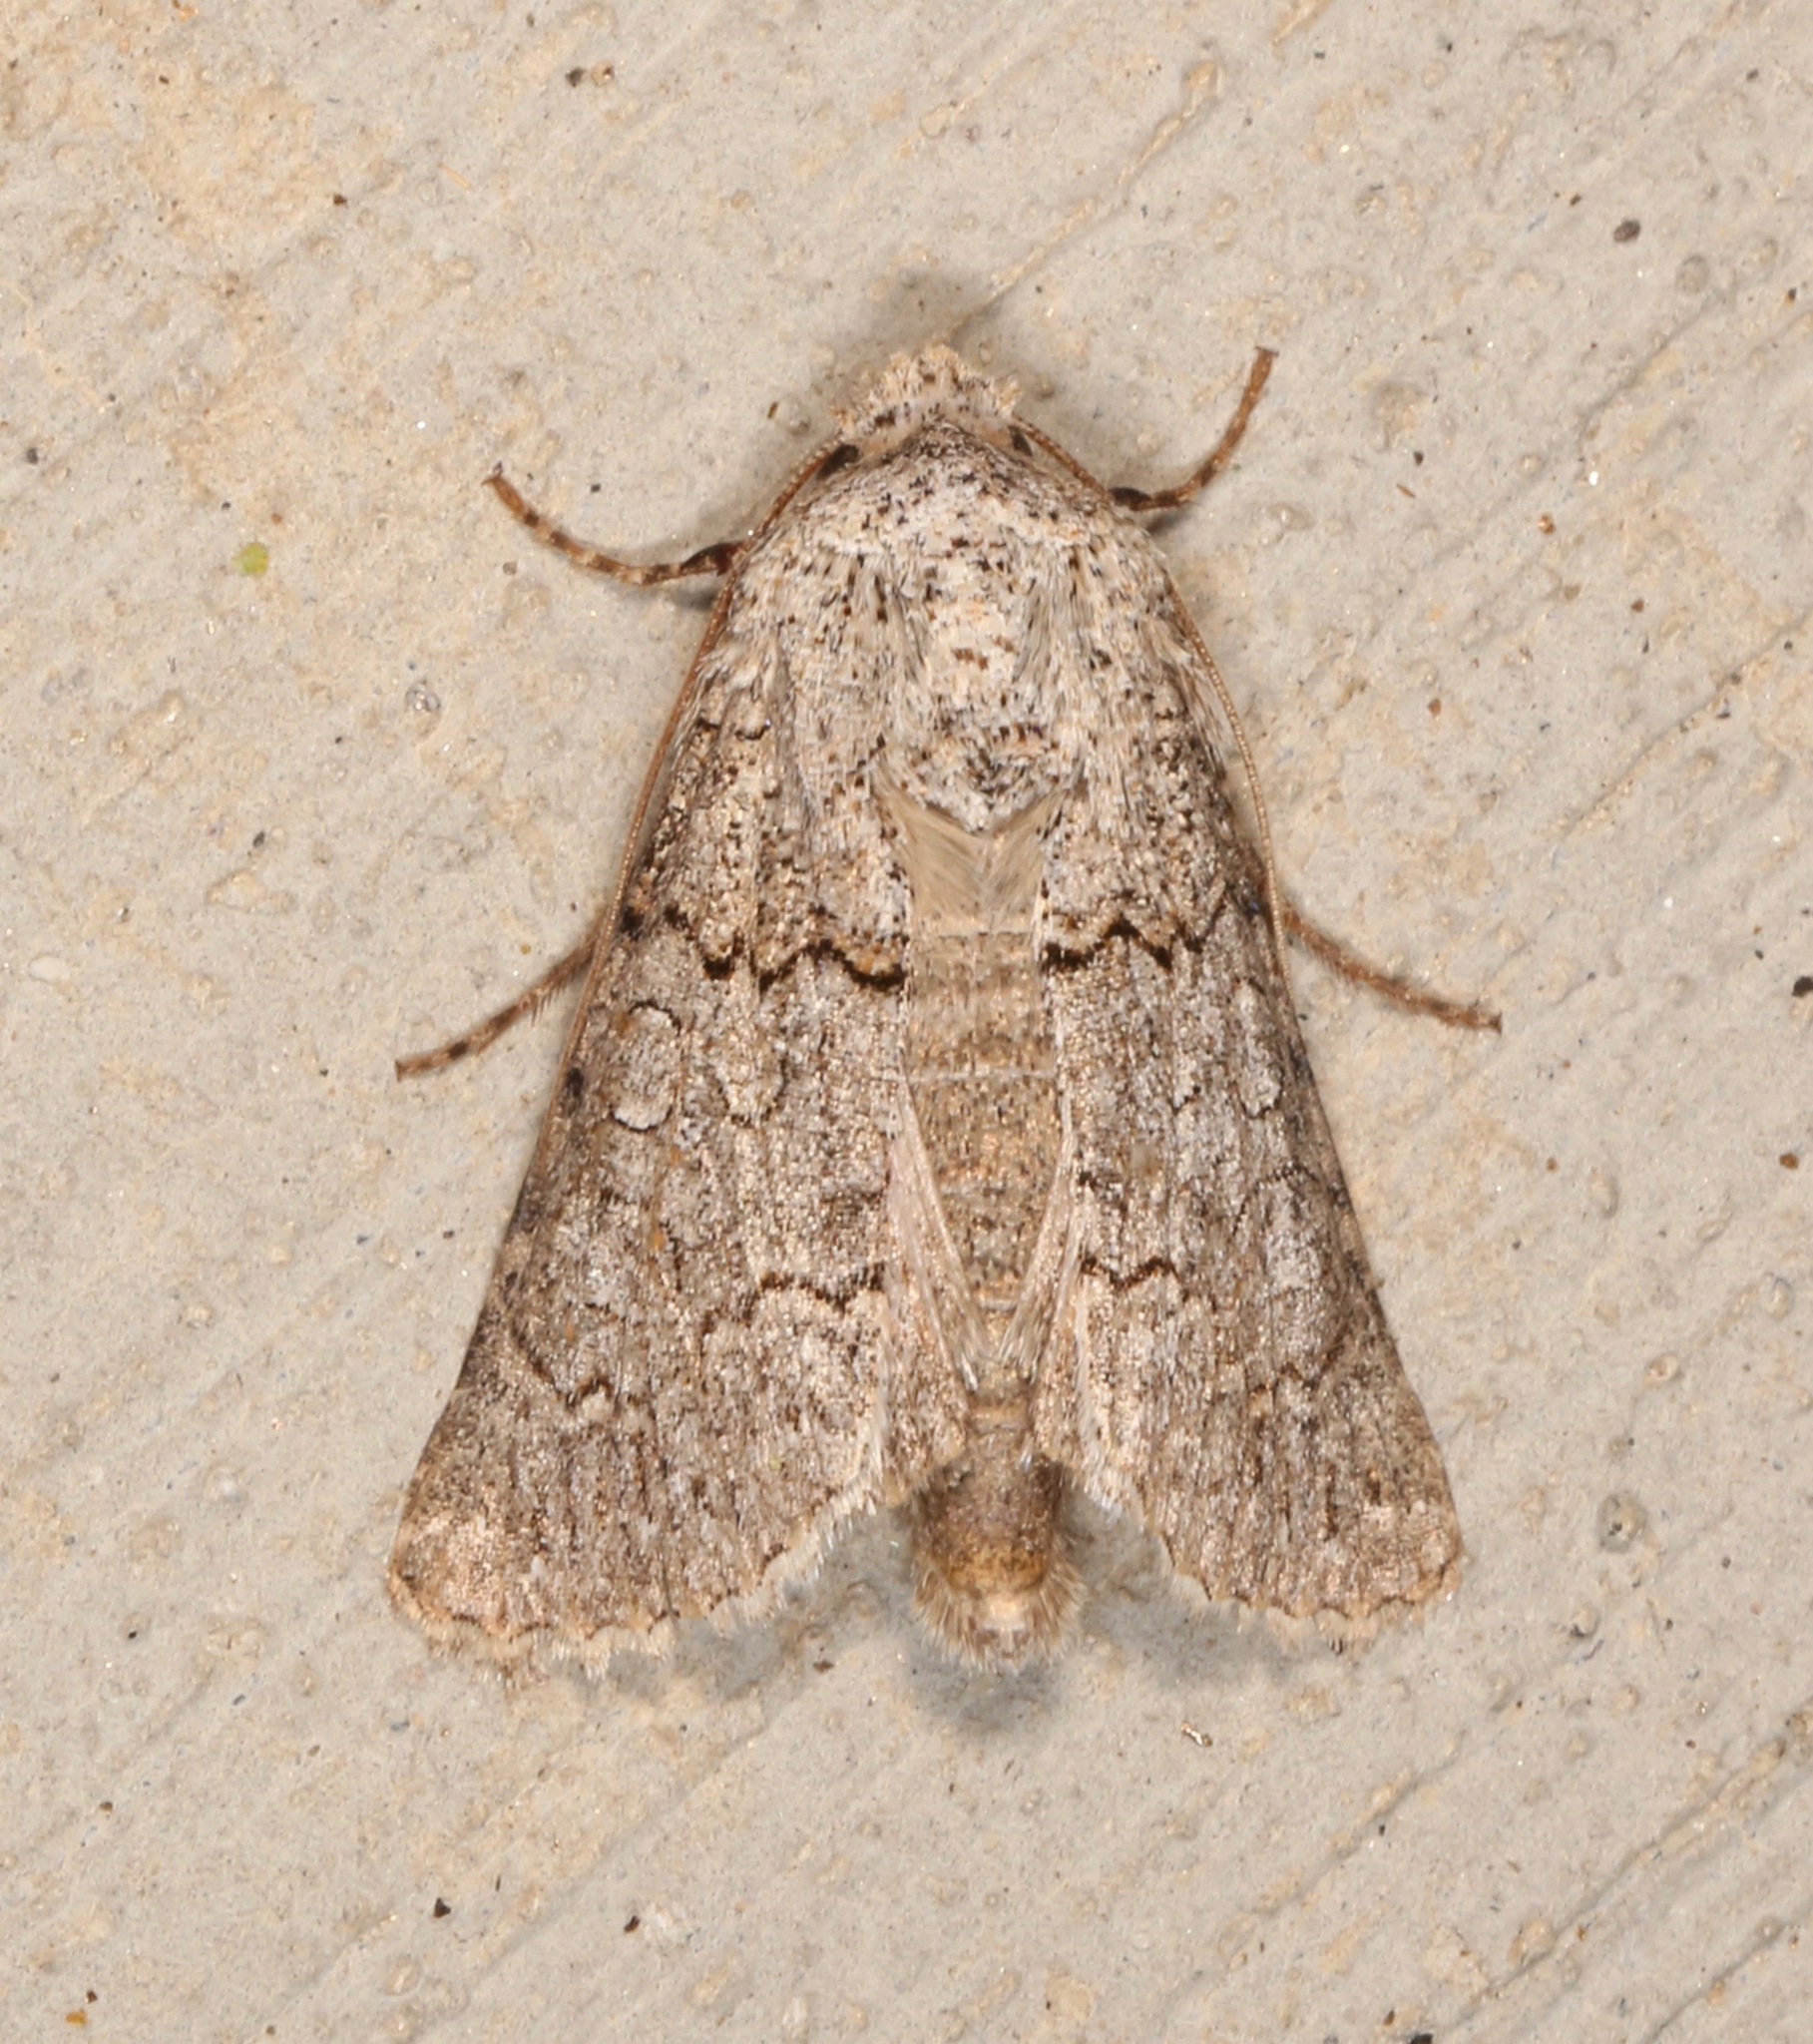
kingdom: Animalia
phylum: Arthropoda
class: Insecta
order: Lepidoptera
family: Noctuidae
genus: Sympistis
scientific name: Sympistis perscripta
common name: Scribbled sallow
